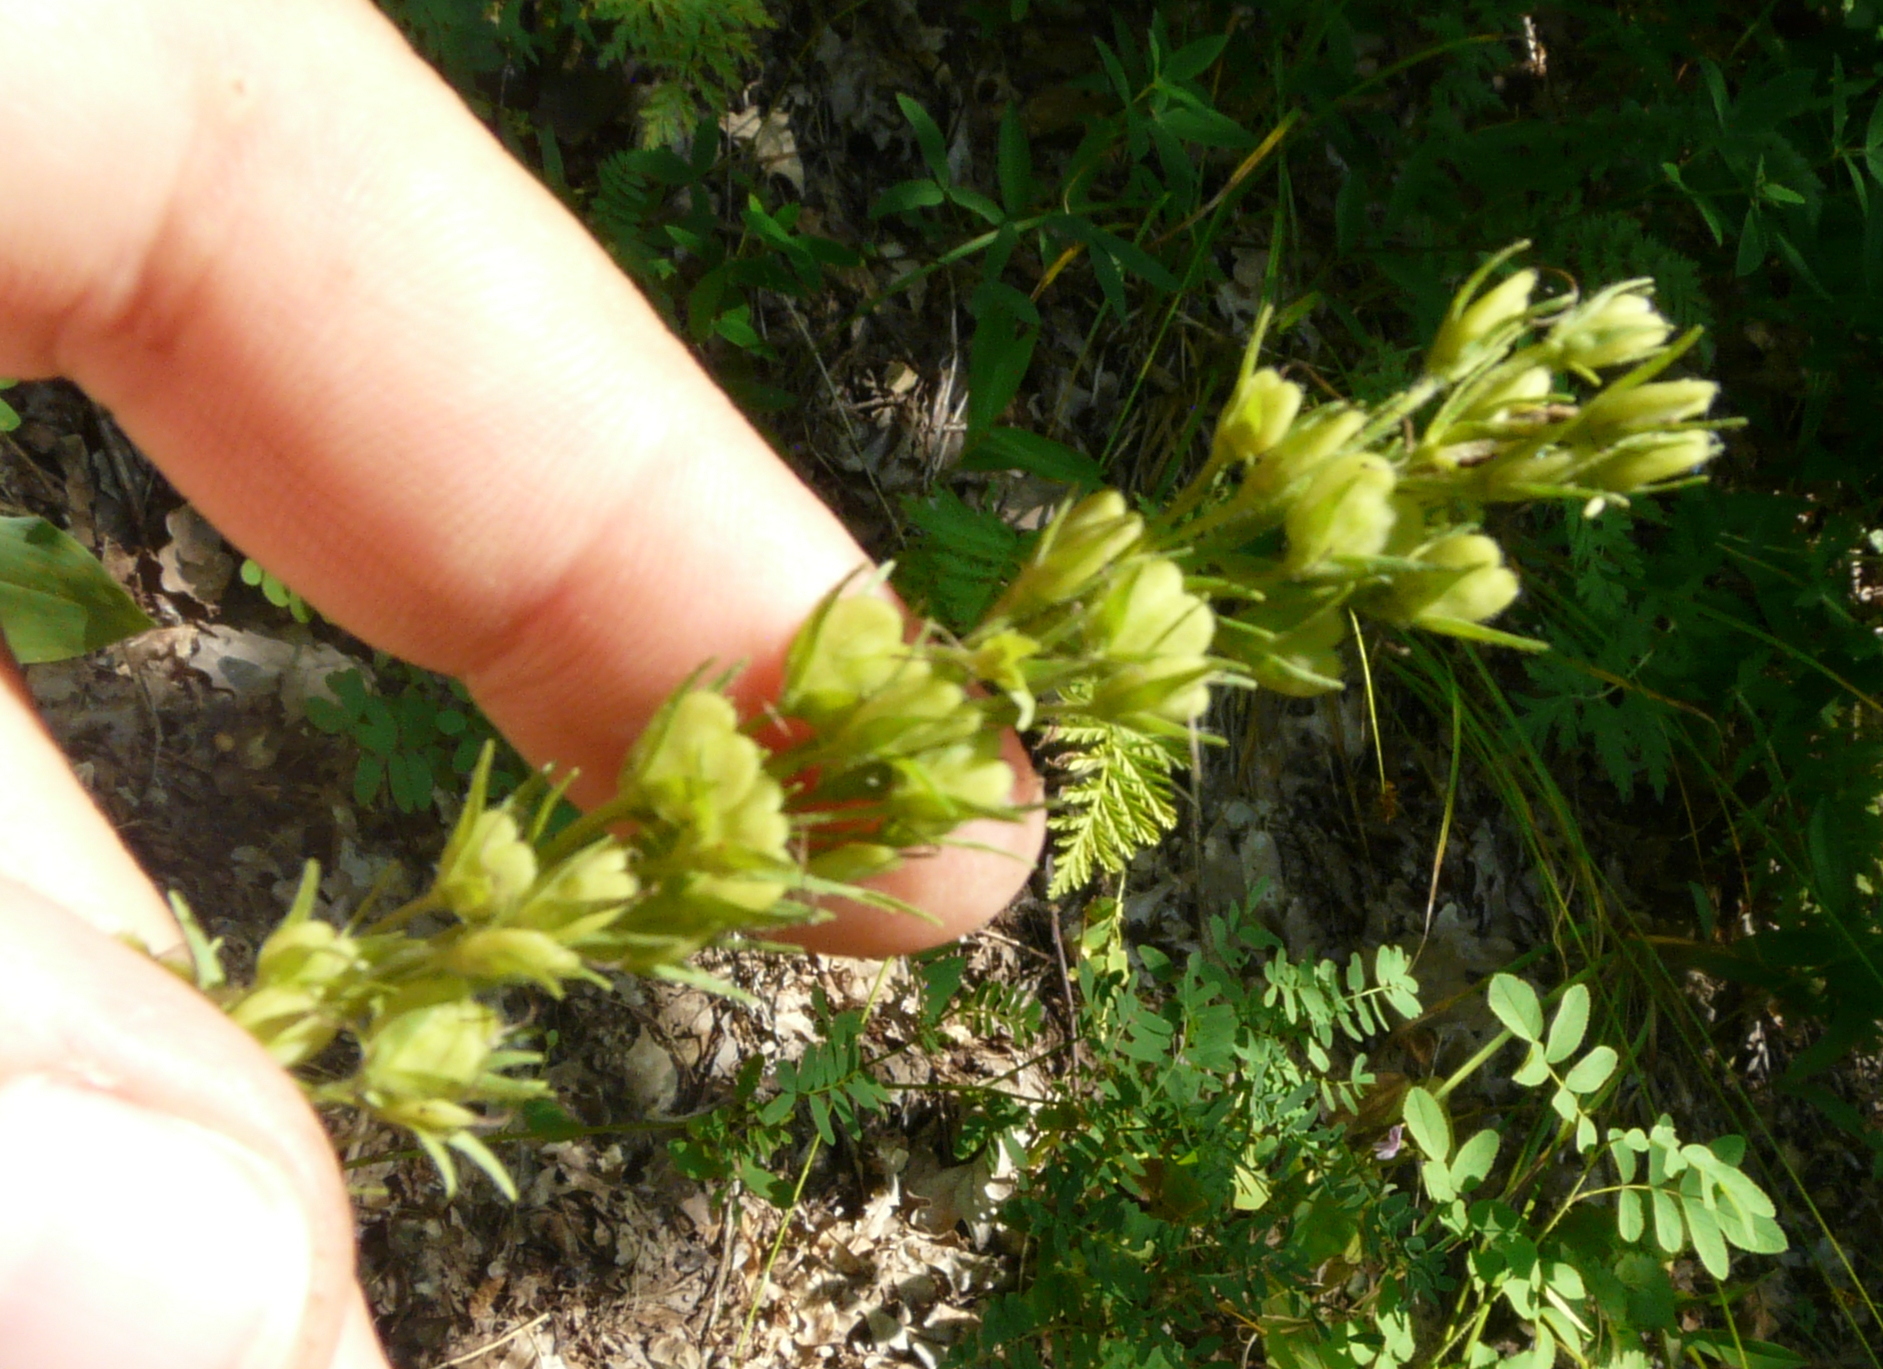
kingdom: Plantae
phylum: Tracheophyta
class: Magnoliopsida
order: Lamiales
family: Plantaginaceae
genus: Veronica
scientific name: Veronica teucrium
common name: Large speedwell
